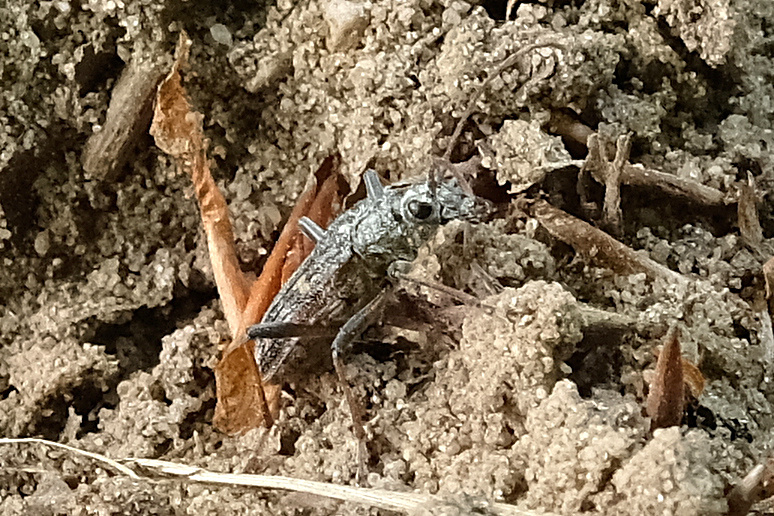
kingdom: Animalia
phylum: Arthropoda
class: Insecta
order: Coleoptera
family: Cerambycidae
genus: Rhagium
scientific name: Rhagium bifasciatum
